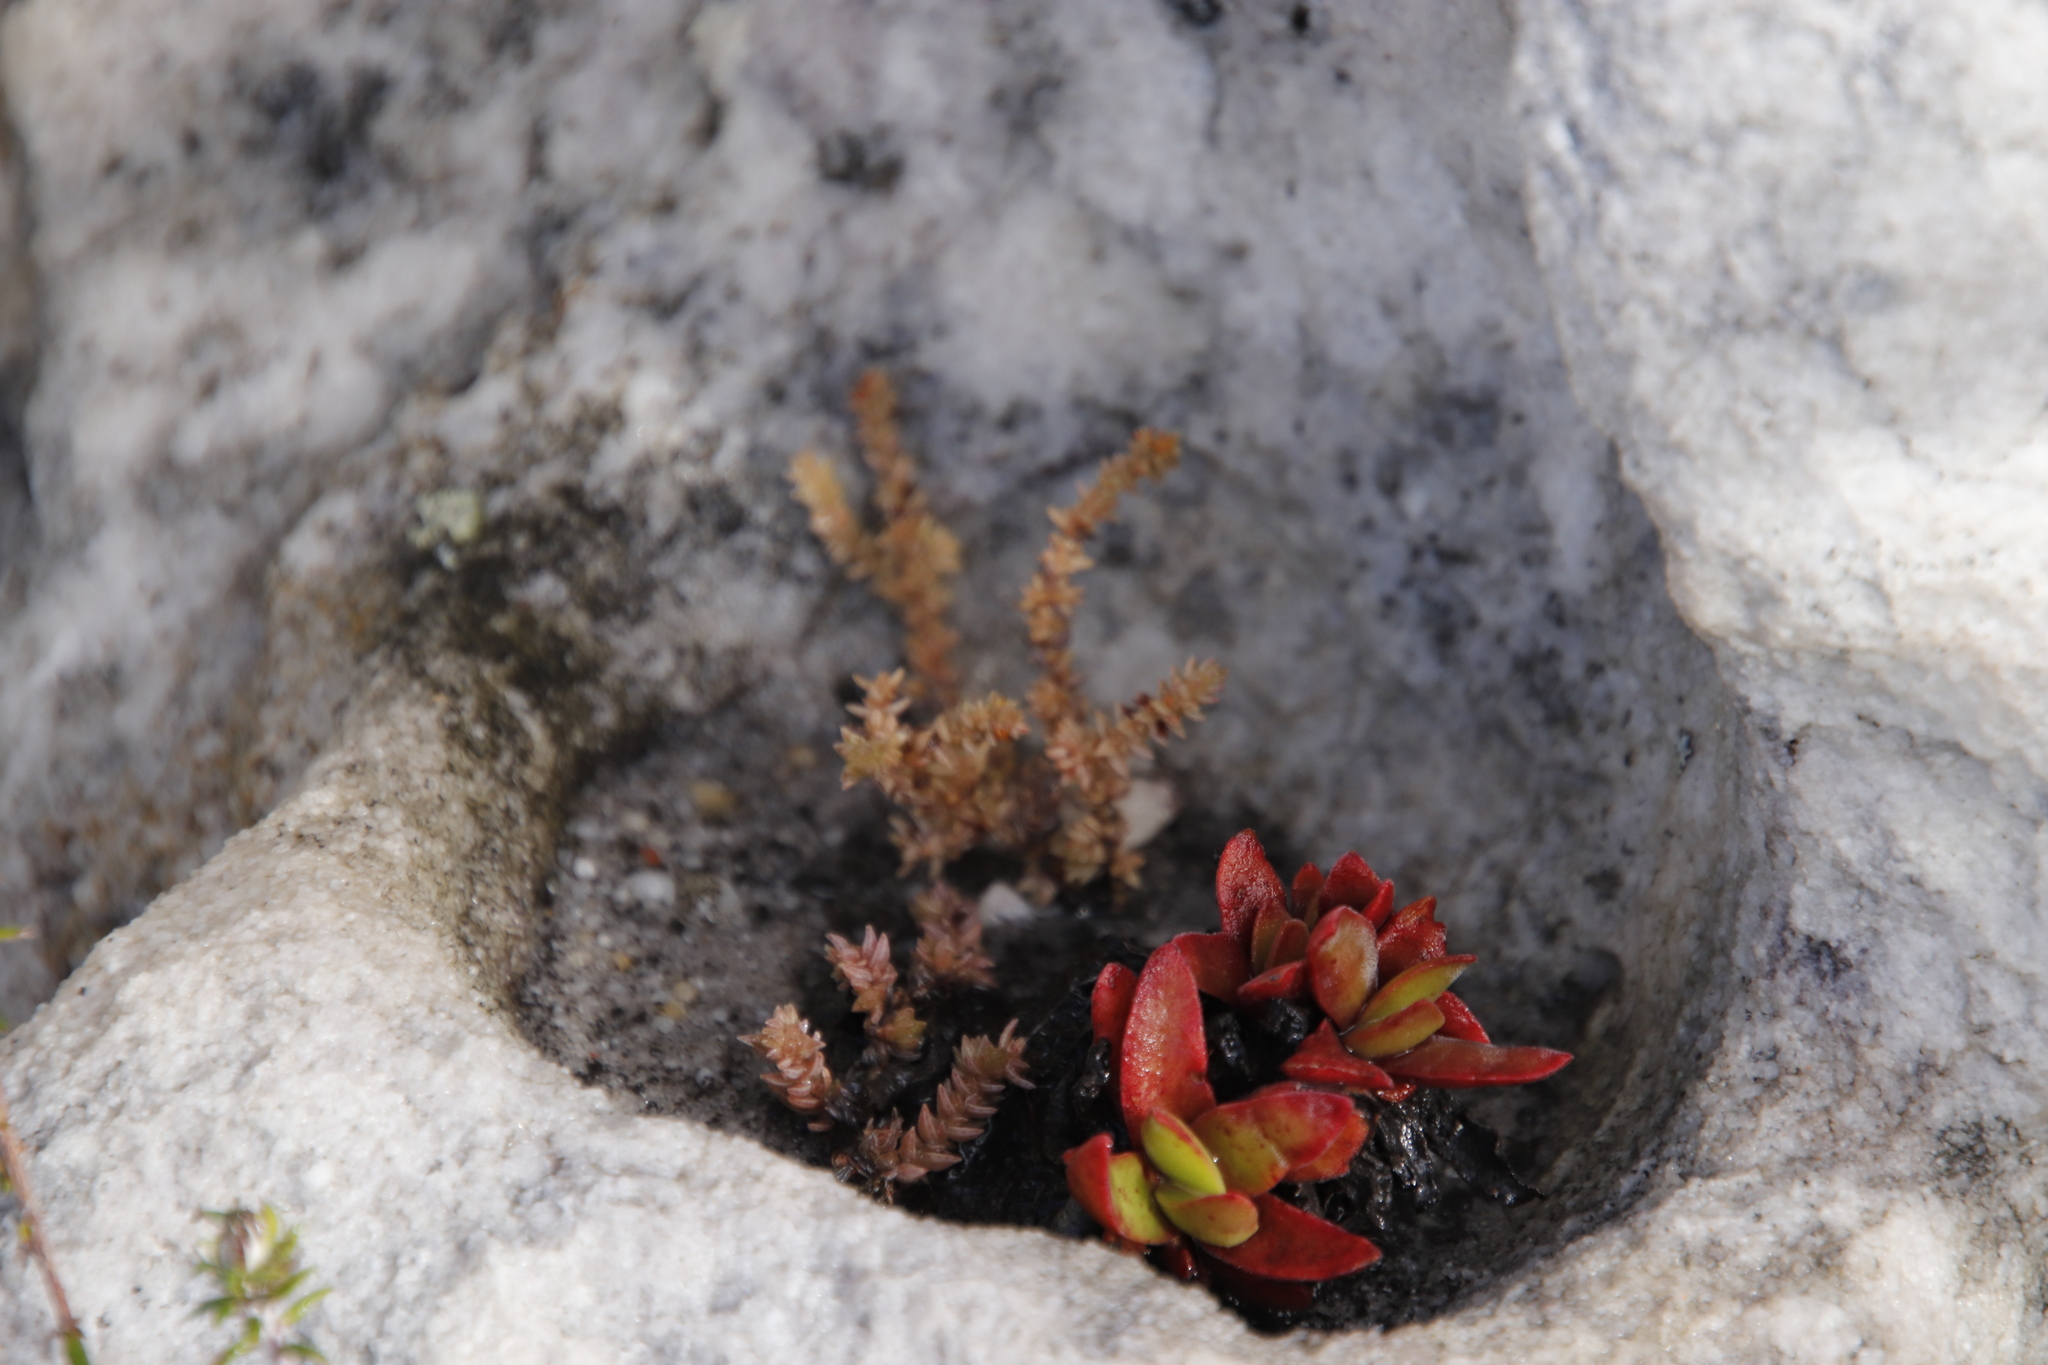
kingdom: Plantae
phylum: Tracheophyta
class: Magnoliopsida
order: Saxifragales
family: Crassulaceae
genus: Crassula
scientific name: Crassula lanceolata
